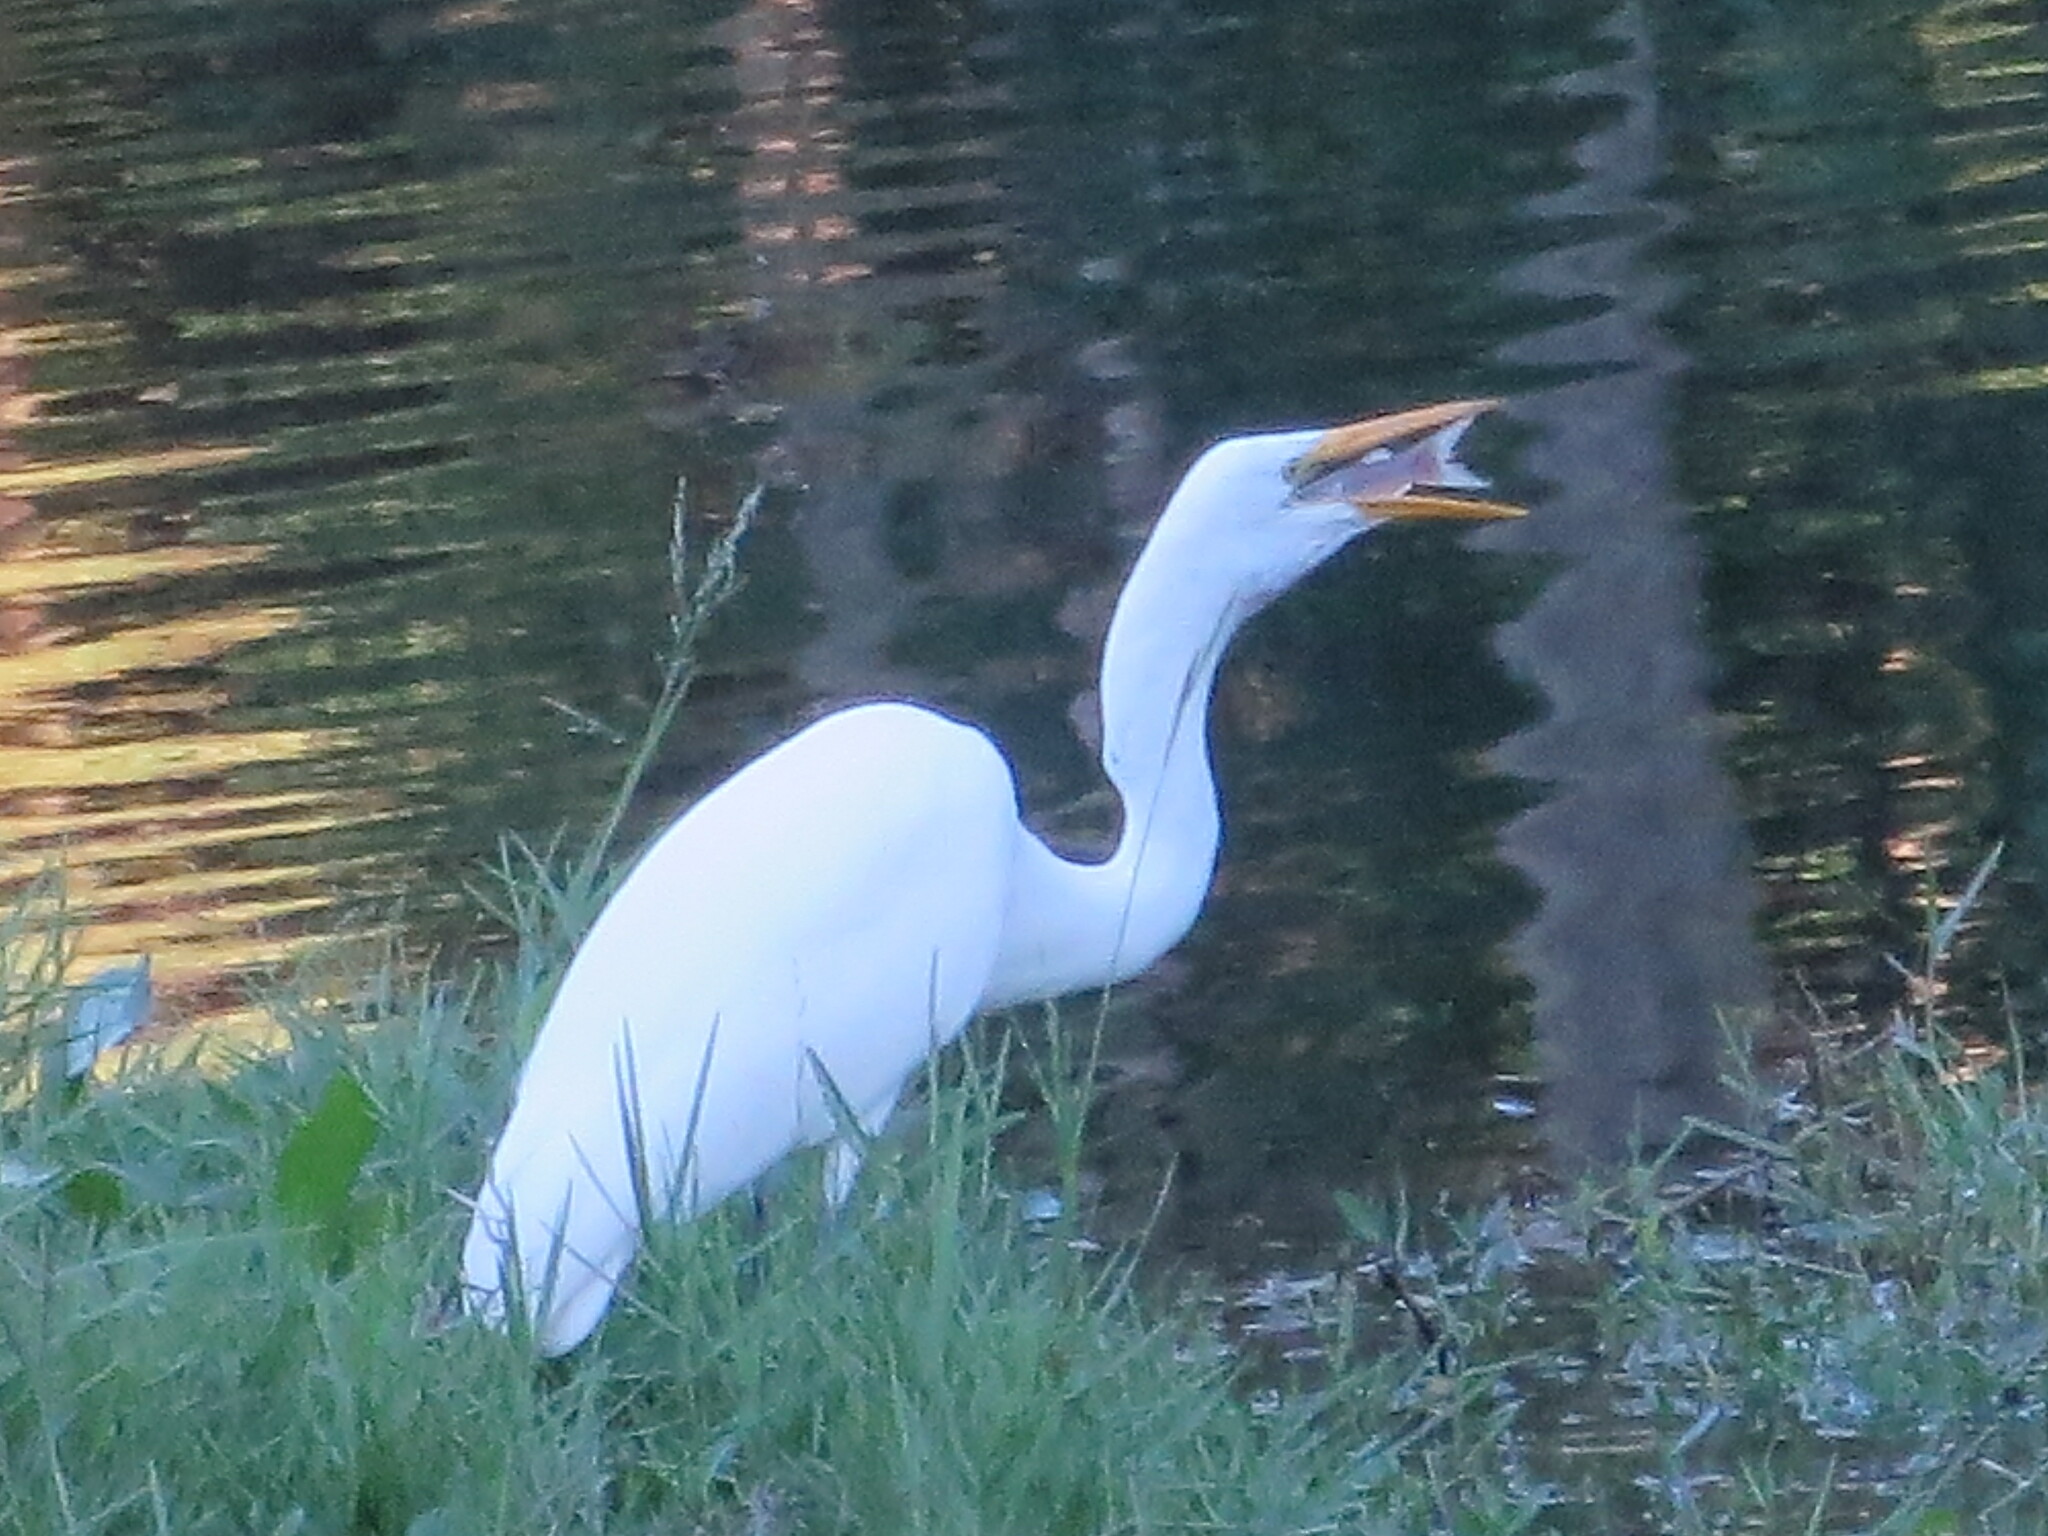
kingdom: Animalia
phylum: Chordata
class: Aves
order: Pelecaniformes
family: Ardeidae
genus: Ardea
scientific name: Ardea alba
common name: Great egret
